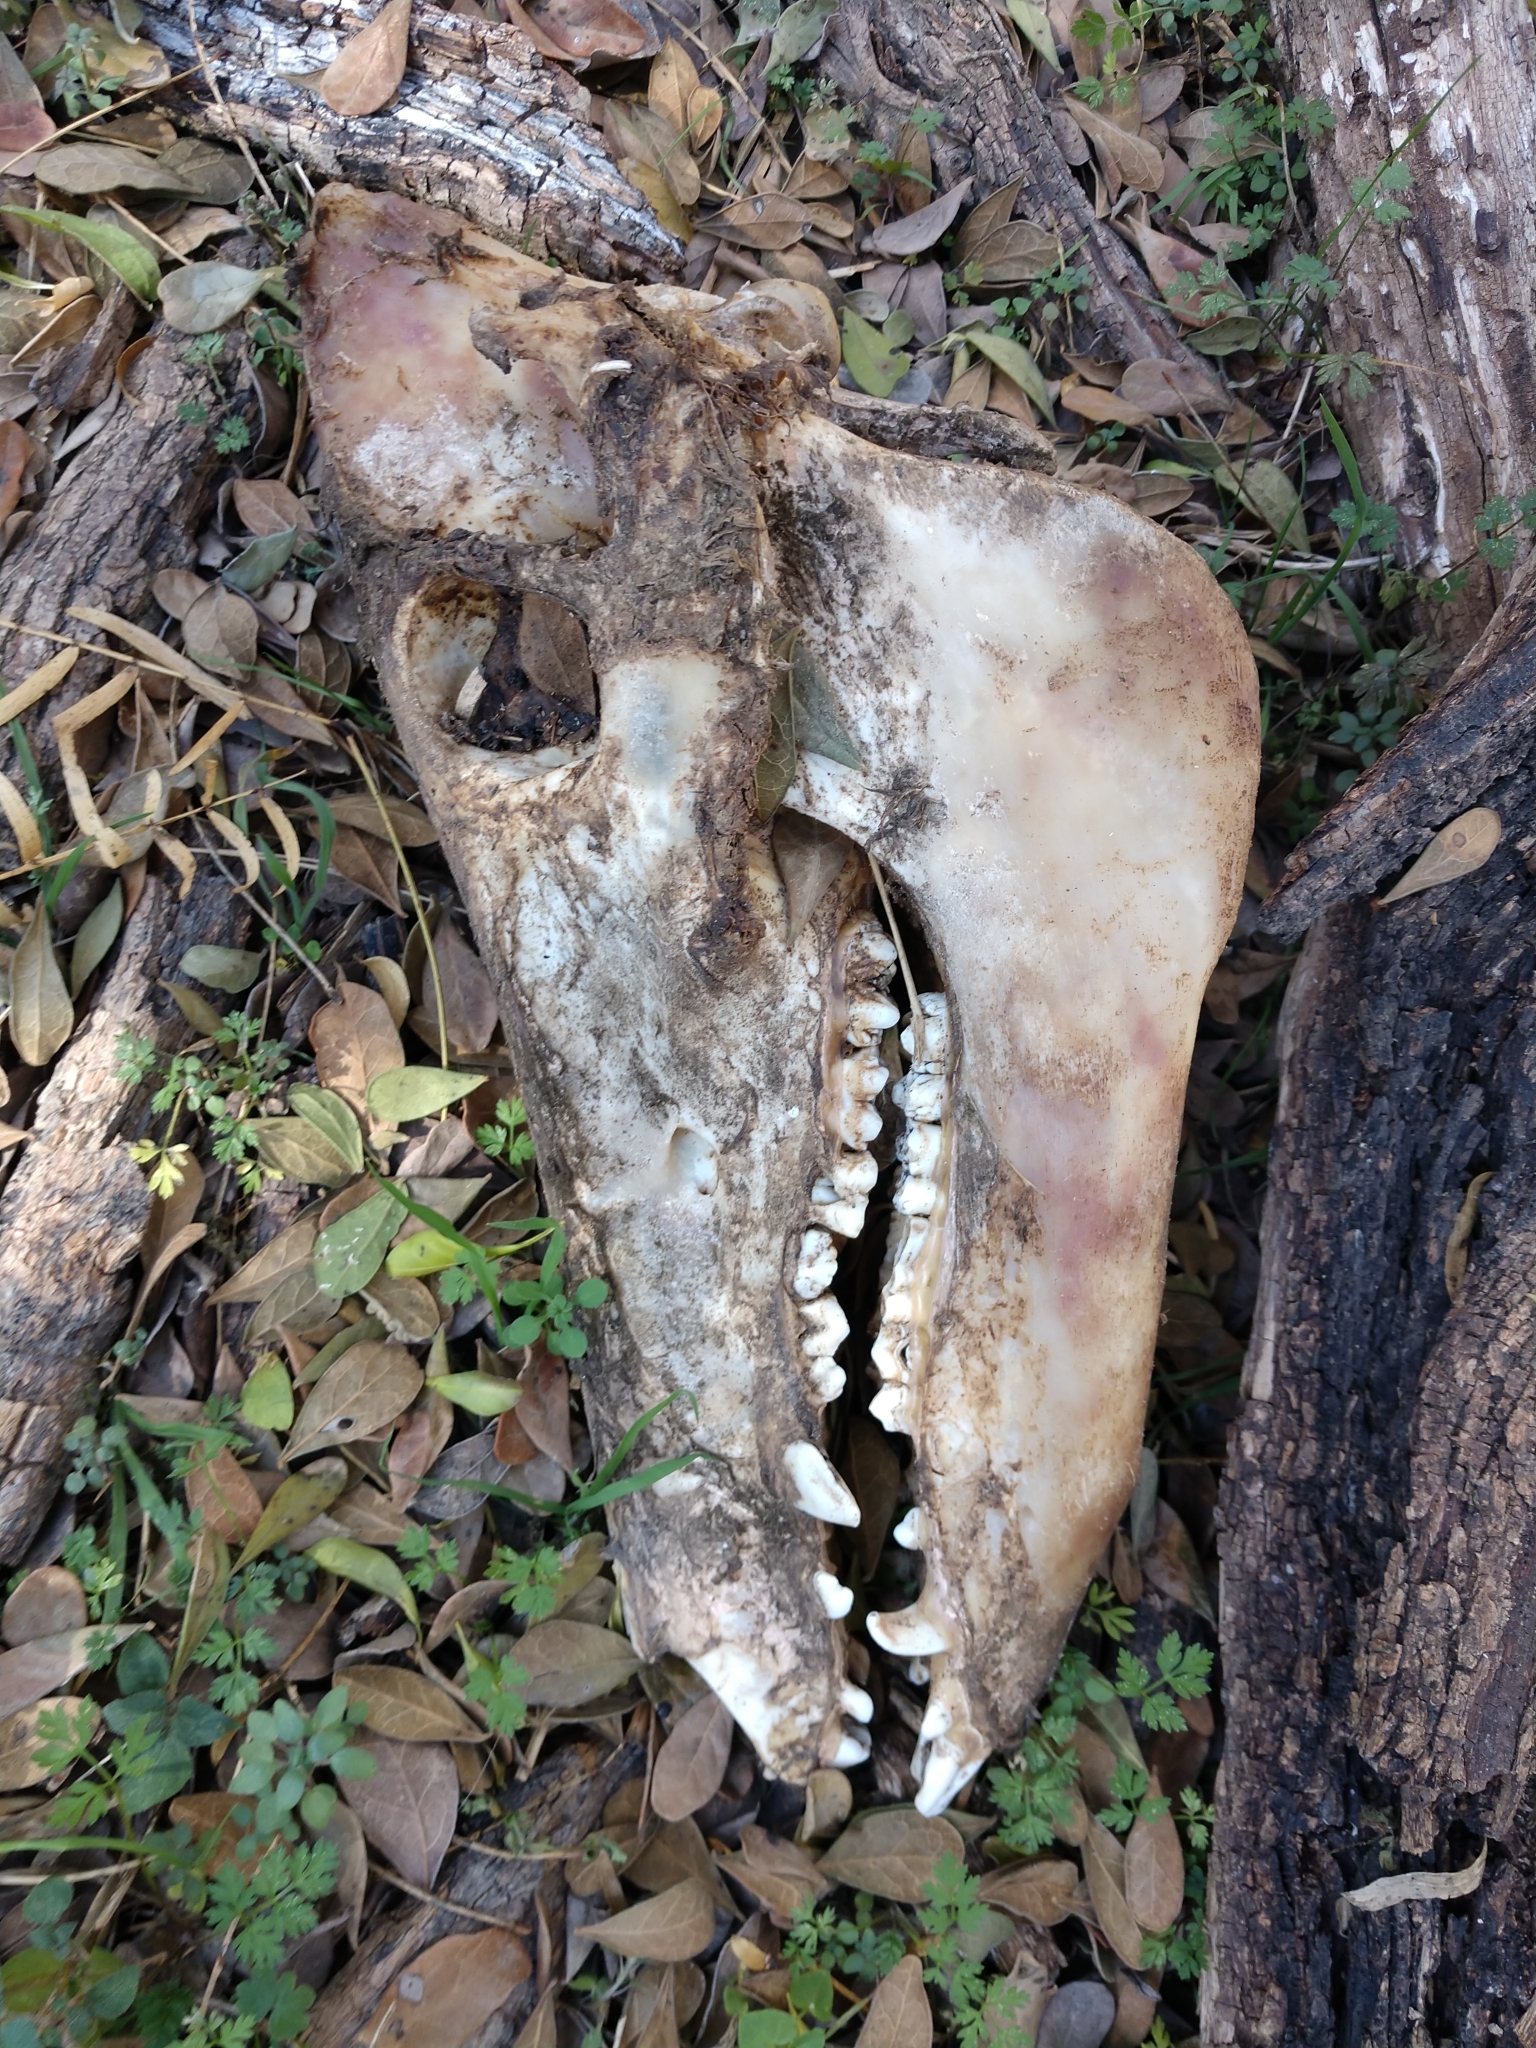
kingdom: Animalia
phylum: Chordata
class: Mammalia
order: Artiodactyla
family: Suidae
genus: Sus
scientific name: Sus scrofa
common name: Wild boar
